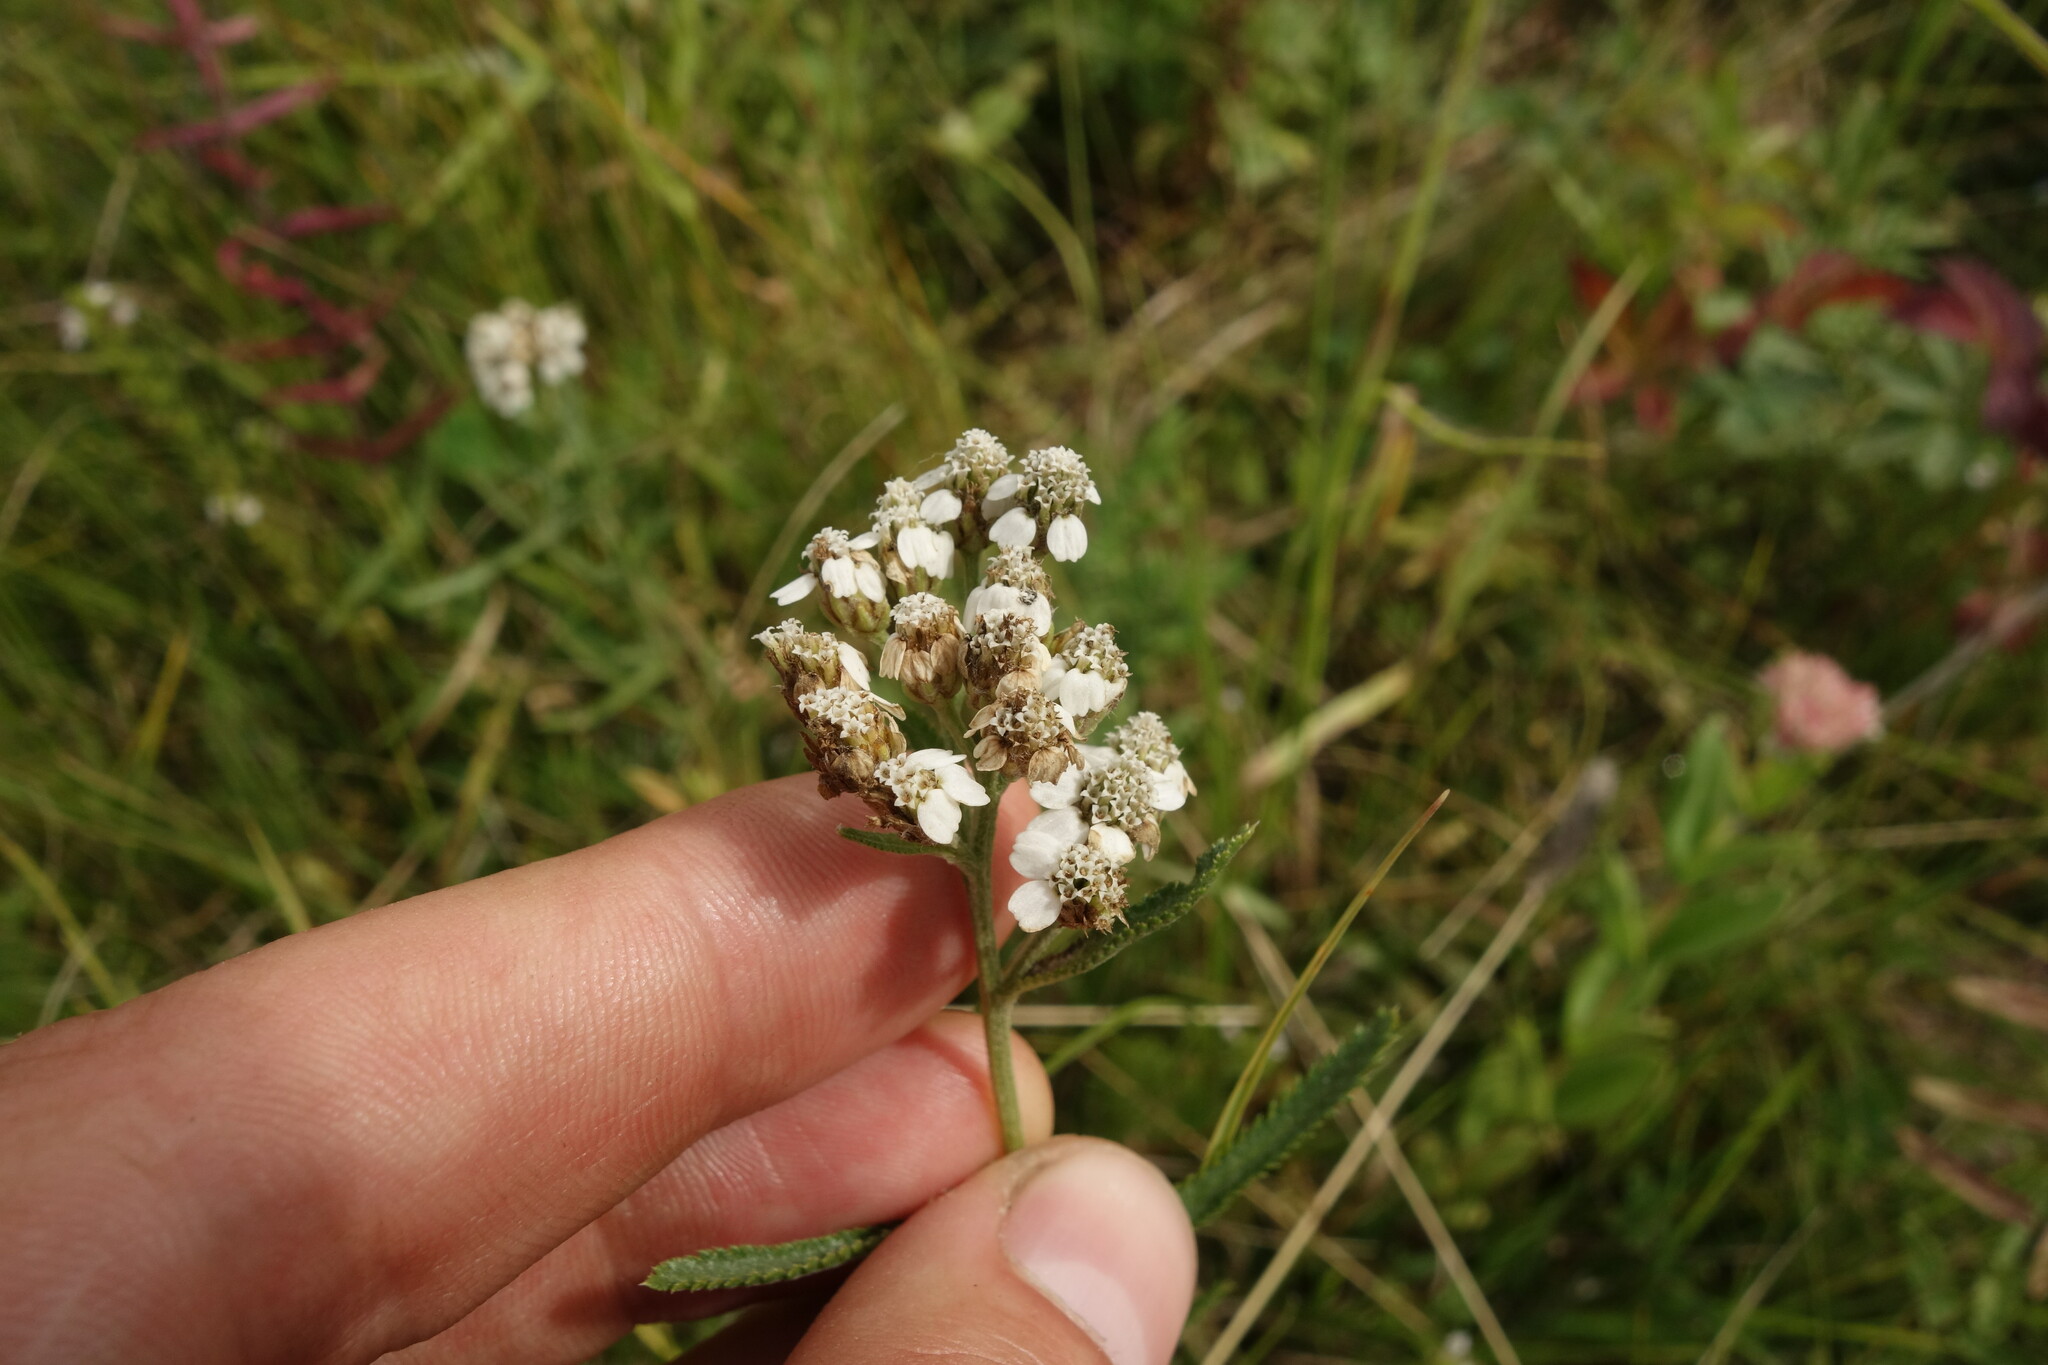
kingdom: Plantae
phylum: Tracheophyta
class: Magnoliopsida
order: Asterales
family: Asteraceae
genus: Achillea
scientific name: Achillea alpina
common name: Siberian yarrow
